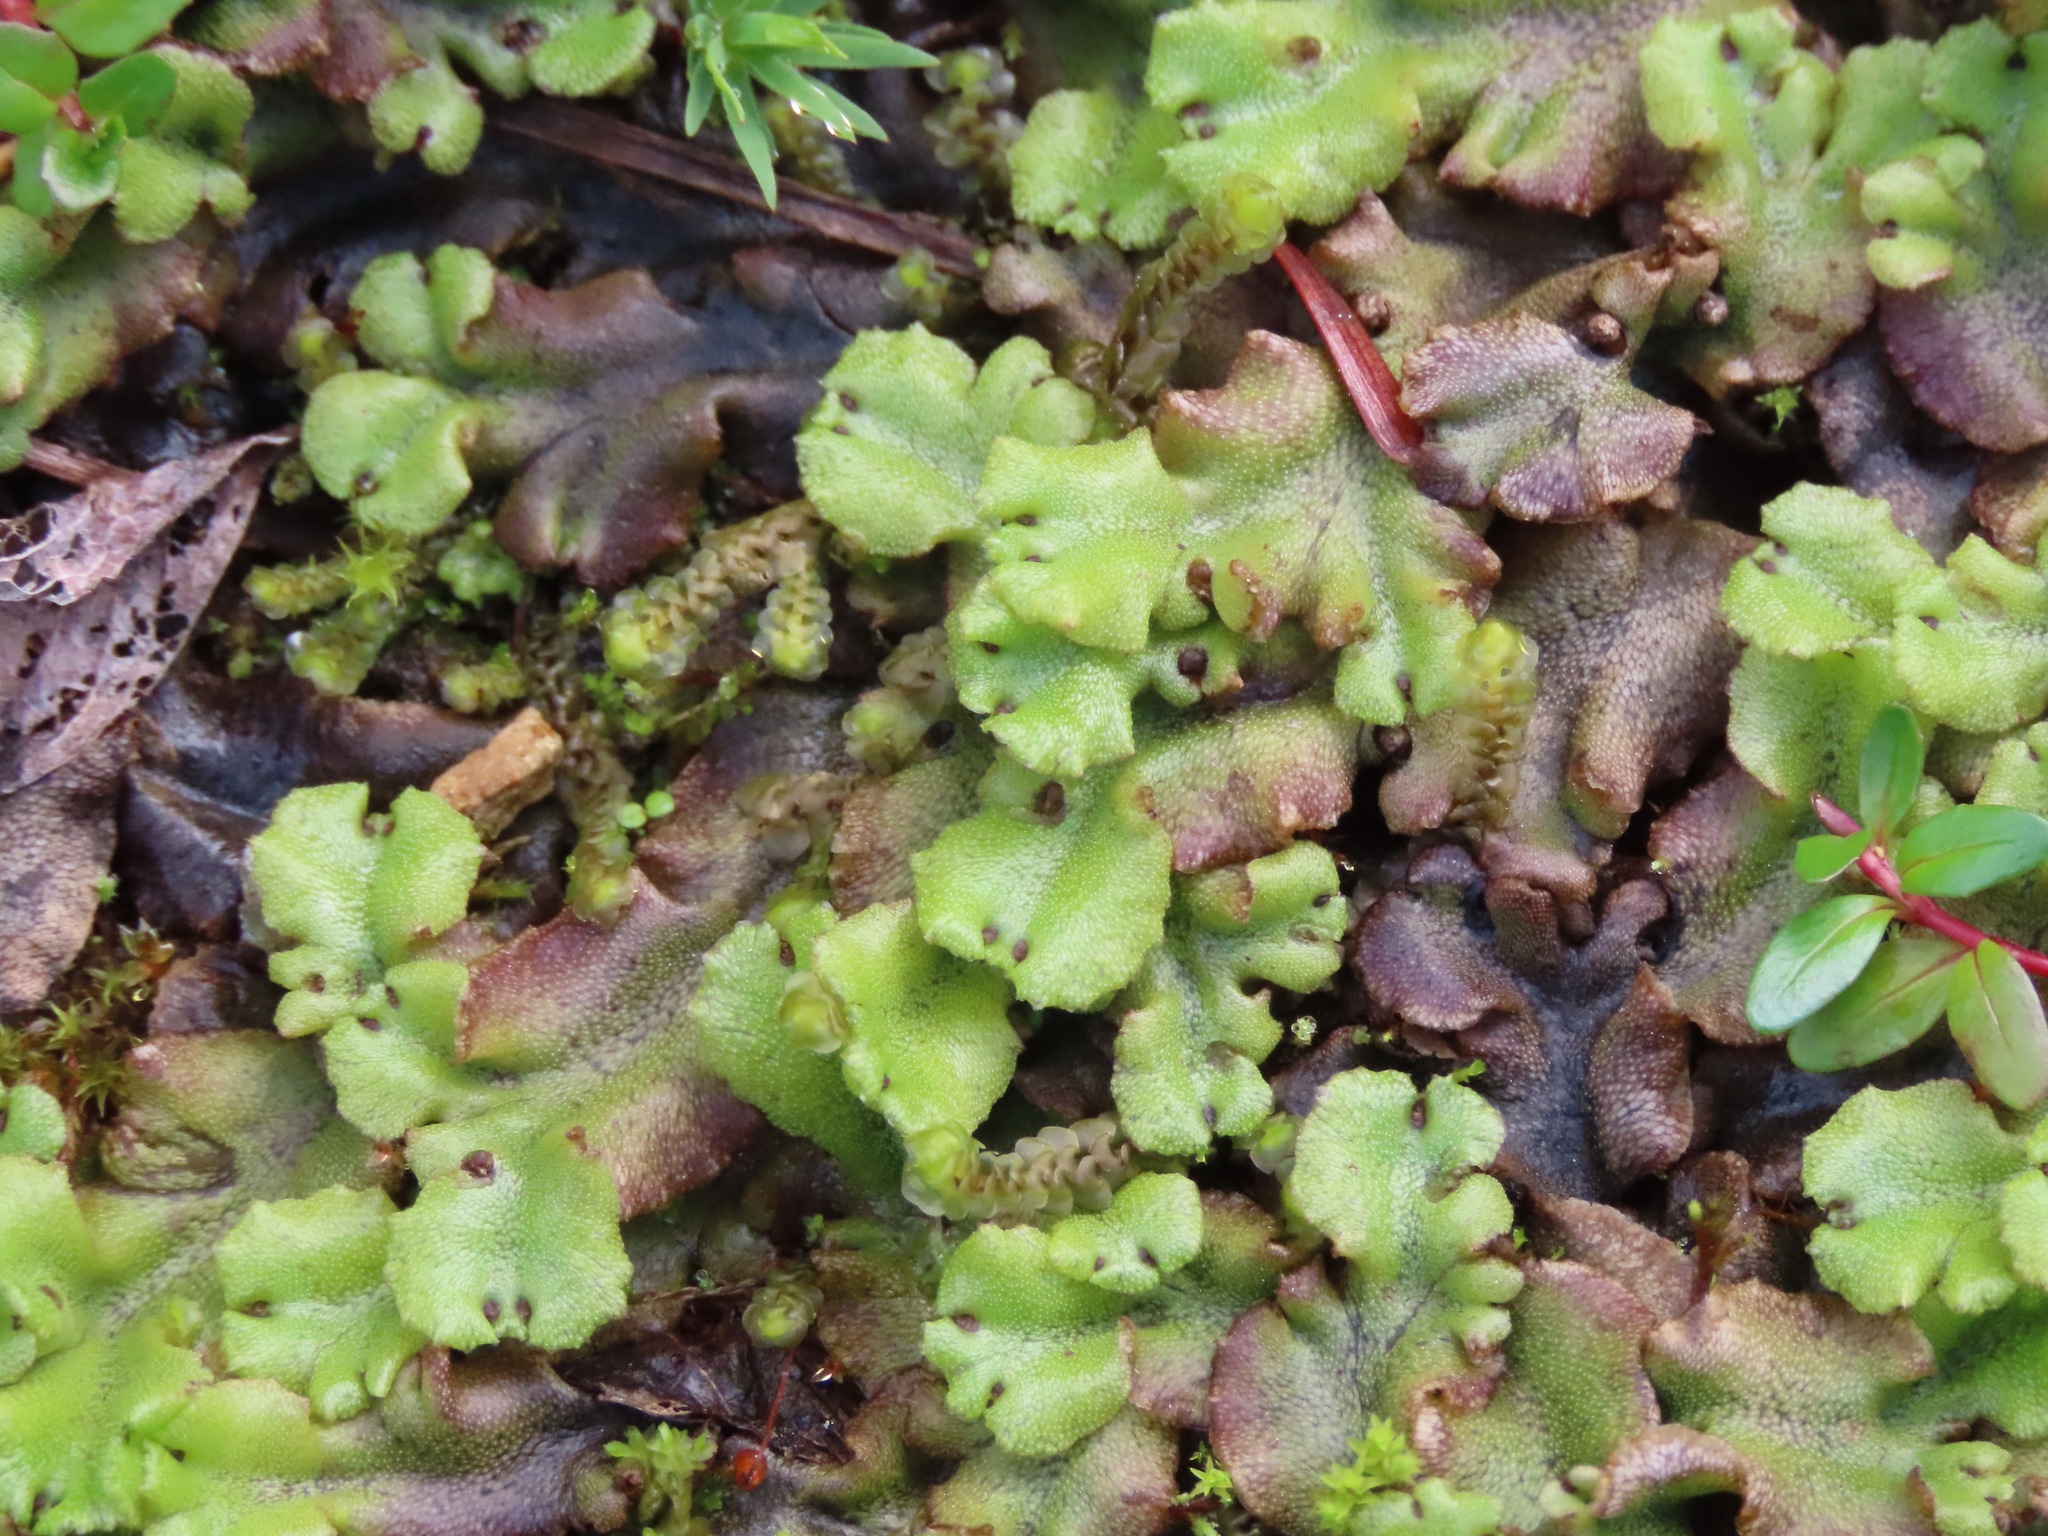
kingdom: Plantae
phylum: Marchantiophyta
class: Marchantiopsida
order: Marchantiales
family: Marchantiaceae
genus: Marchantia
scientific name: Marchantia polymorpha
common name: Common liverwort
